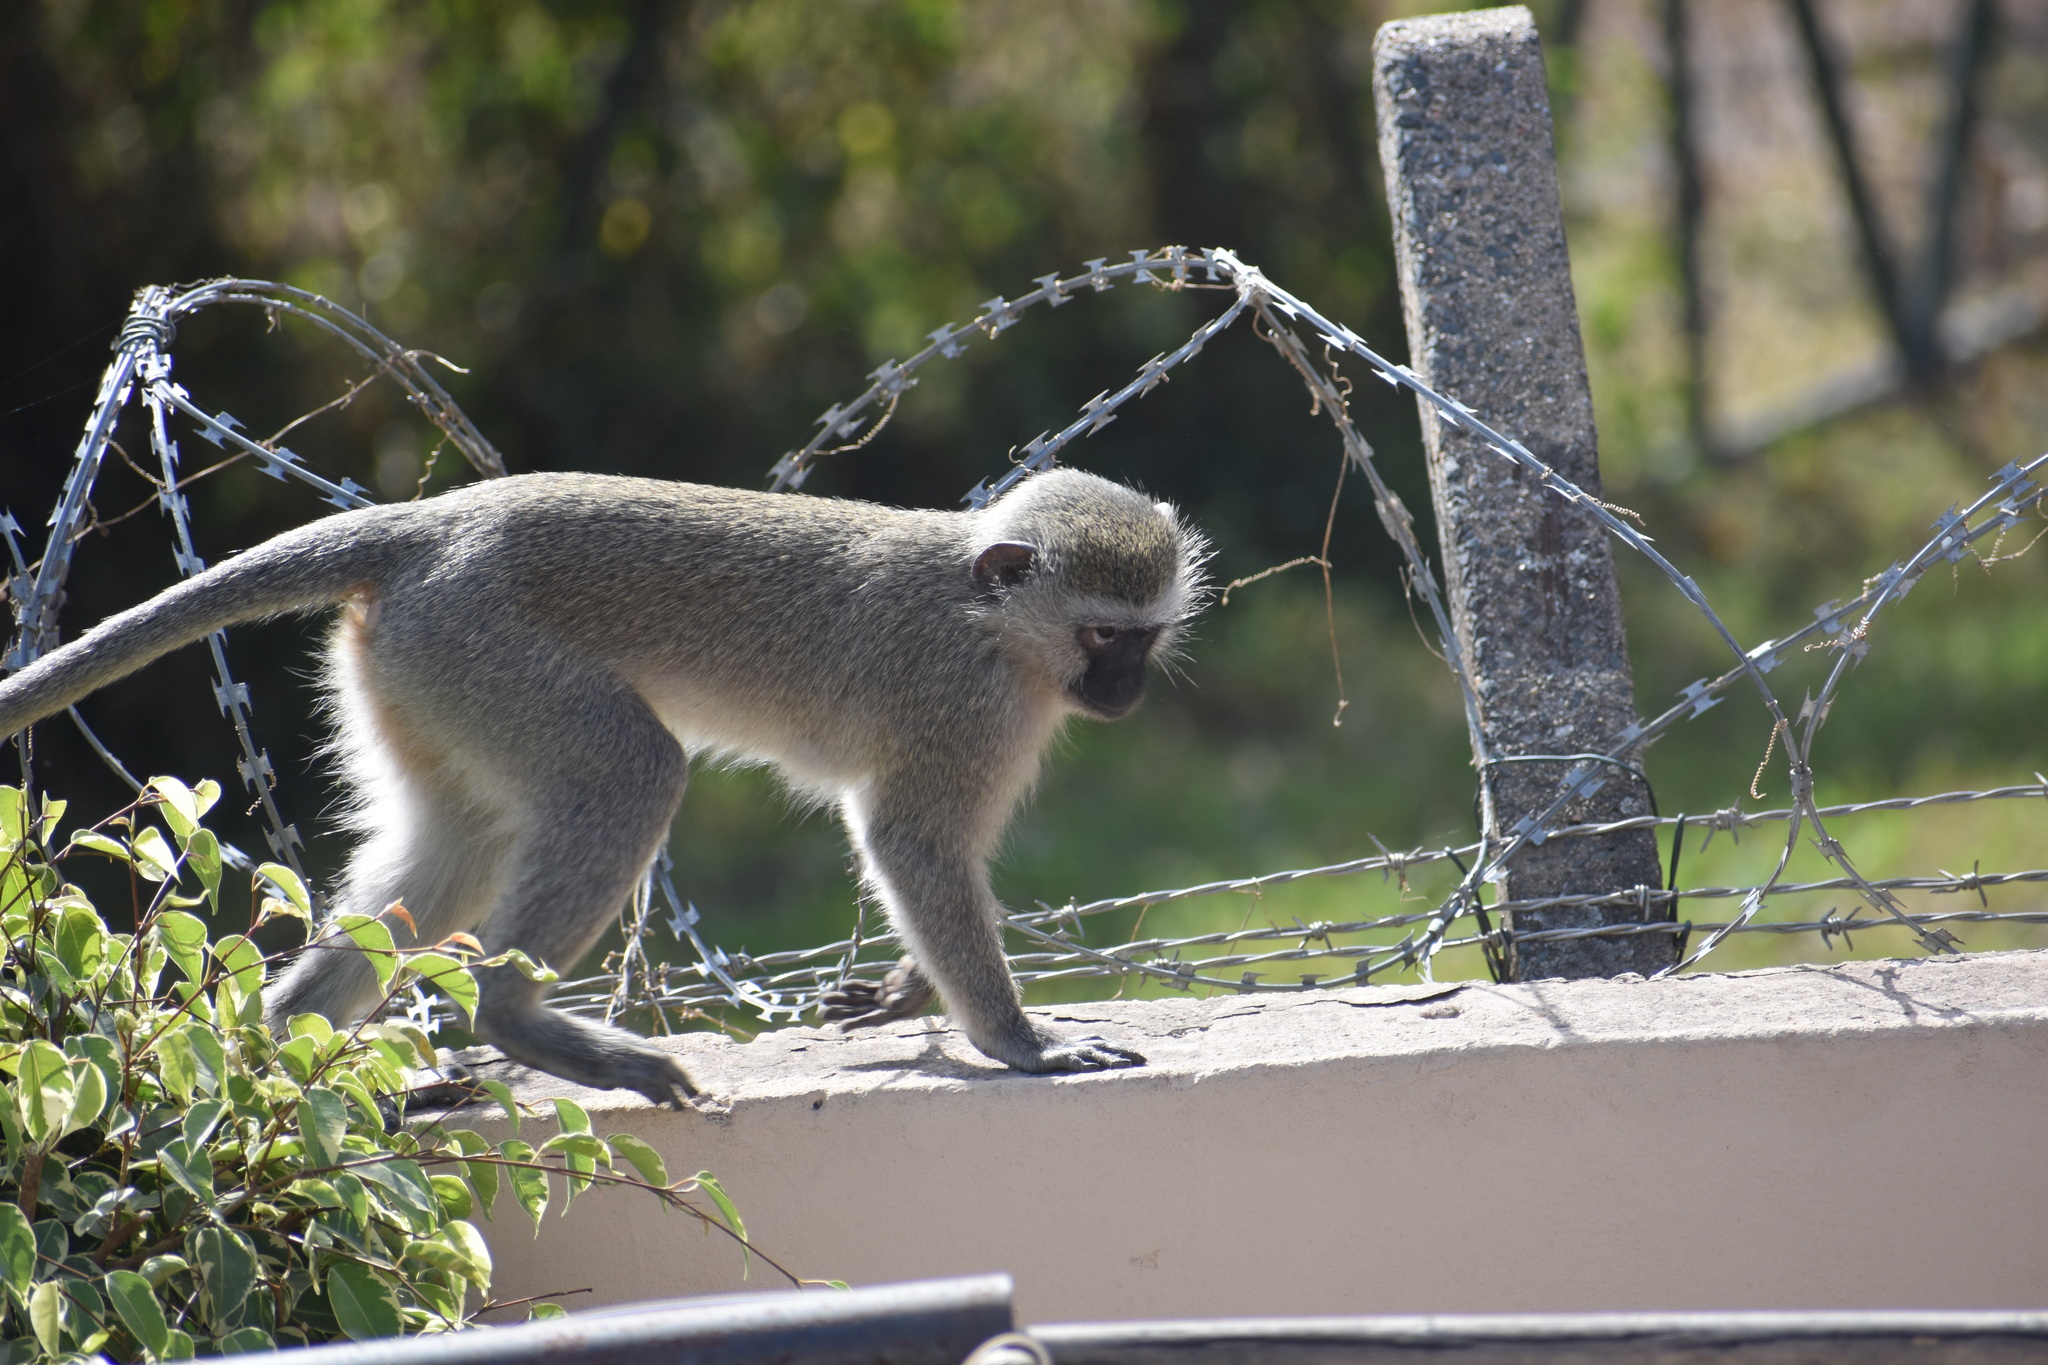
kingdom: Animalia
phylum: Chordata
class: Mammalia
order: Primates
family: Cercopithecidae
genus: Chlorocebus
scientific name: Chlorocebus pygerythrus
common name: Vervet monkey
